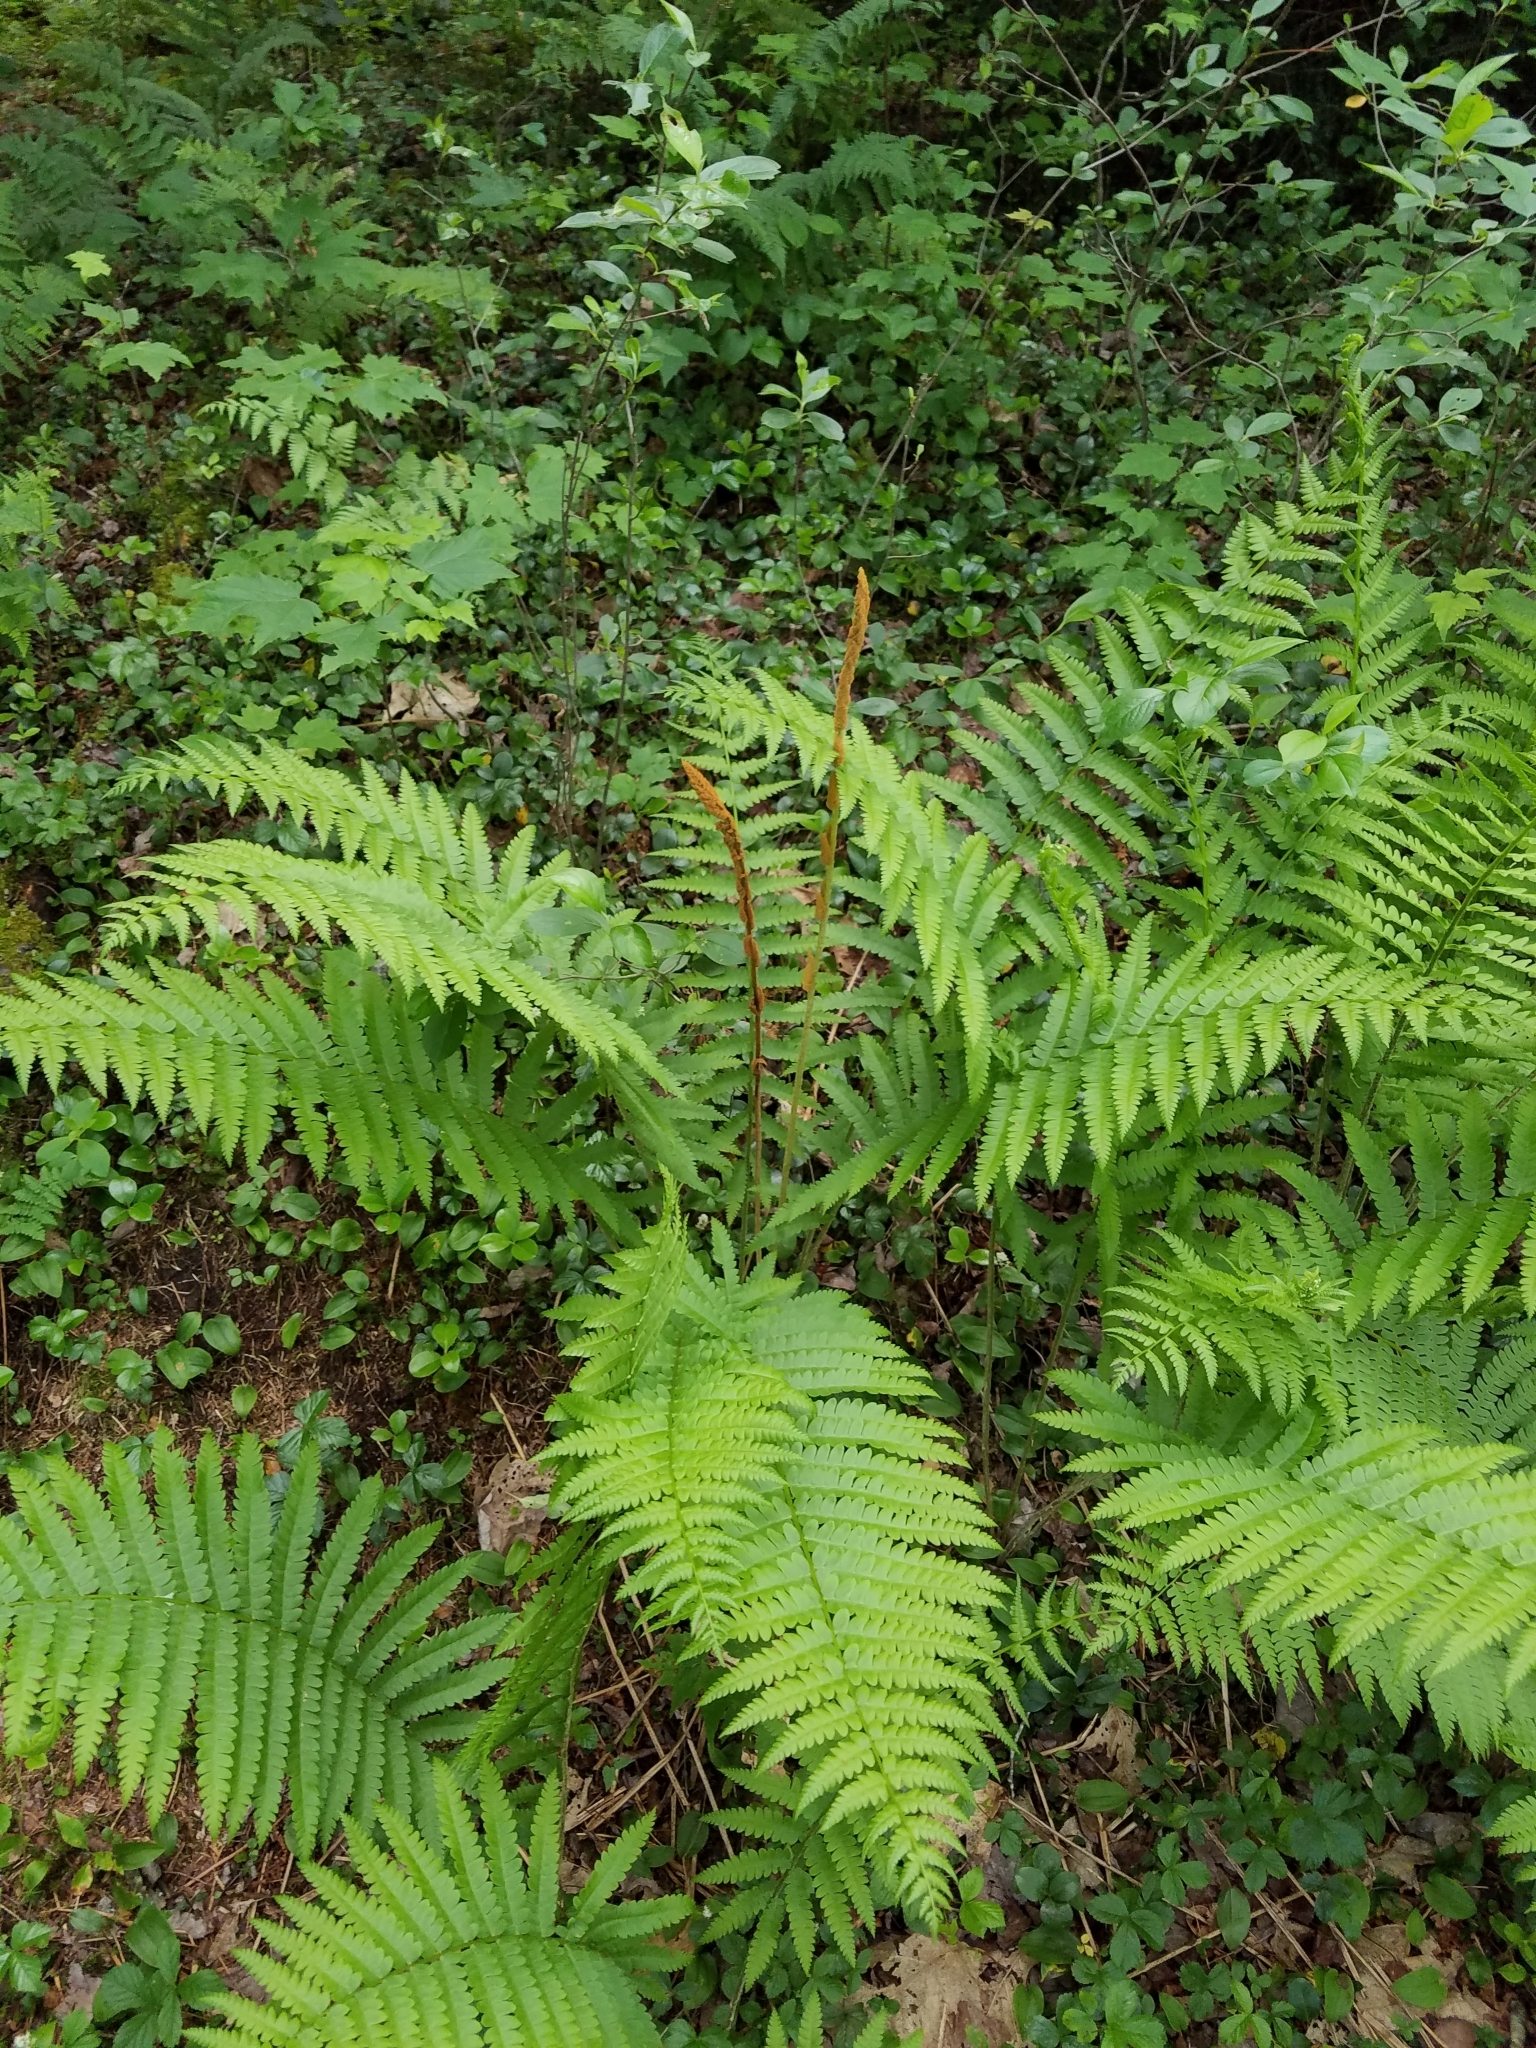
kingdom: Plantae
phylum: Tracheophyta
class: Polypodiopsida
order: Osmundales
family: Osmundaceae
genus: Osmundastrum
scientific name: Osmundastrum cinnamomeum
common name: Cinnamon fern
